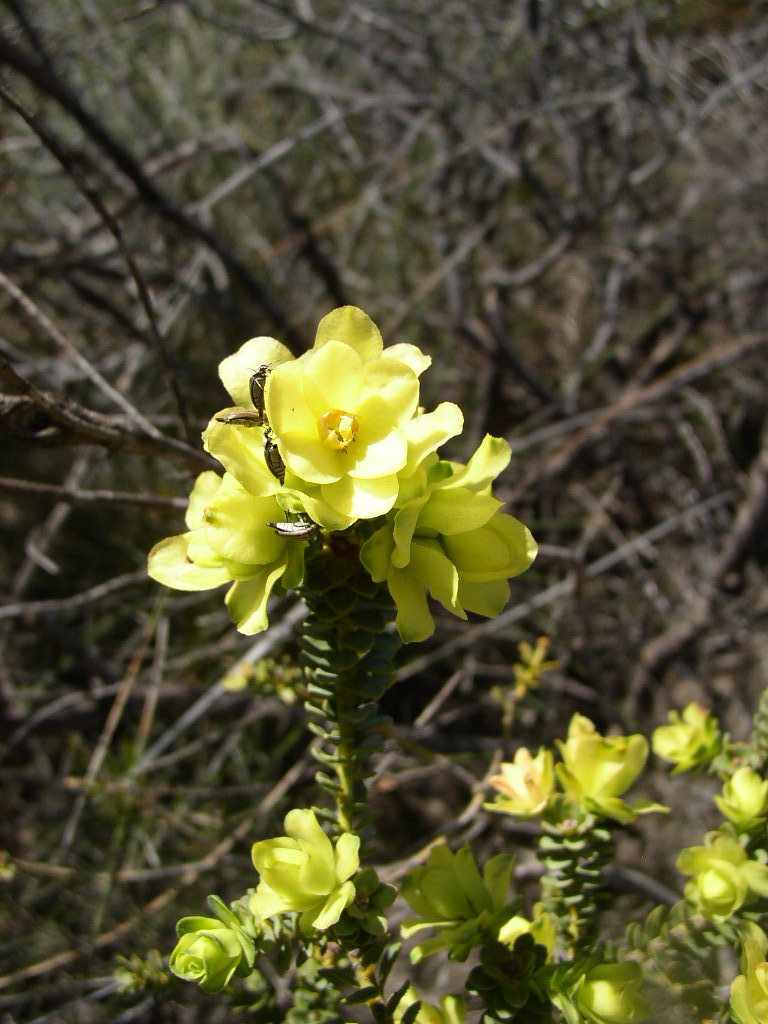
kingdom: Plantae
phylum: Tracheophyta
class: Magnoliopsida
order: Sapindales
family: Rutaceae
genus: Geleznowia
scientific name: Geleznowia verrucosa
